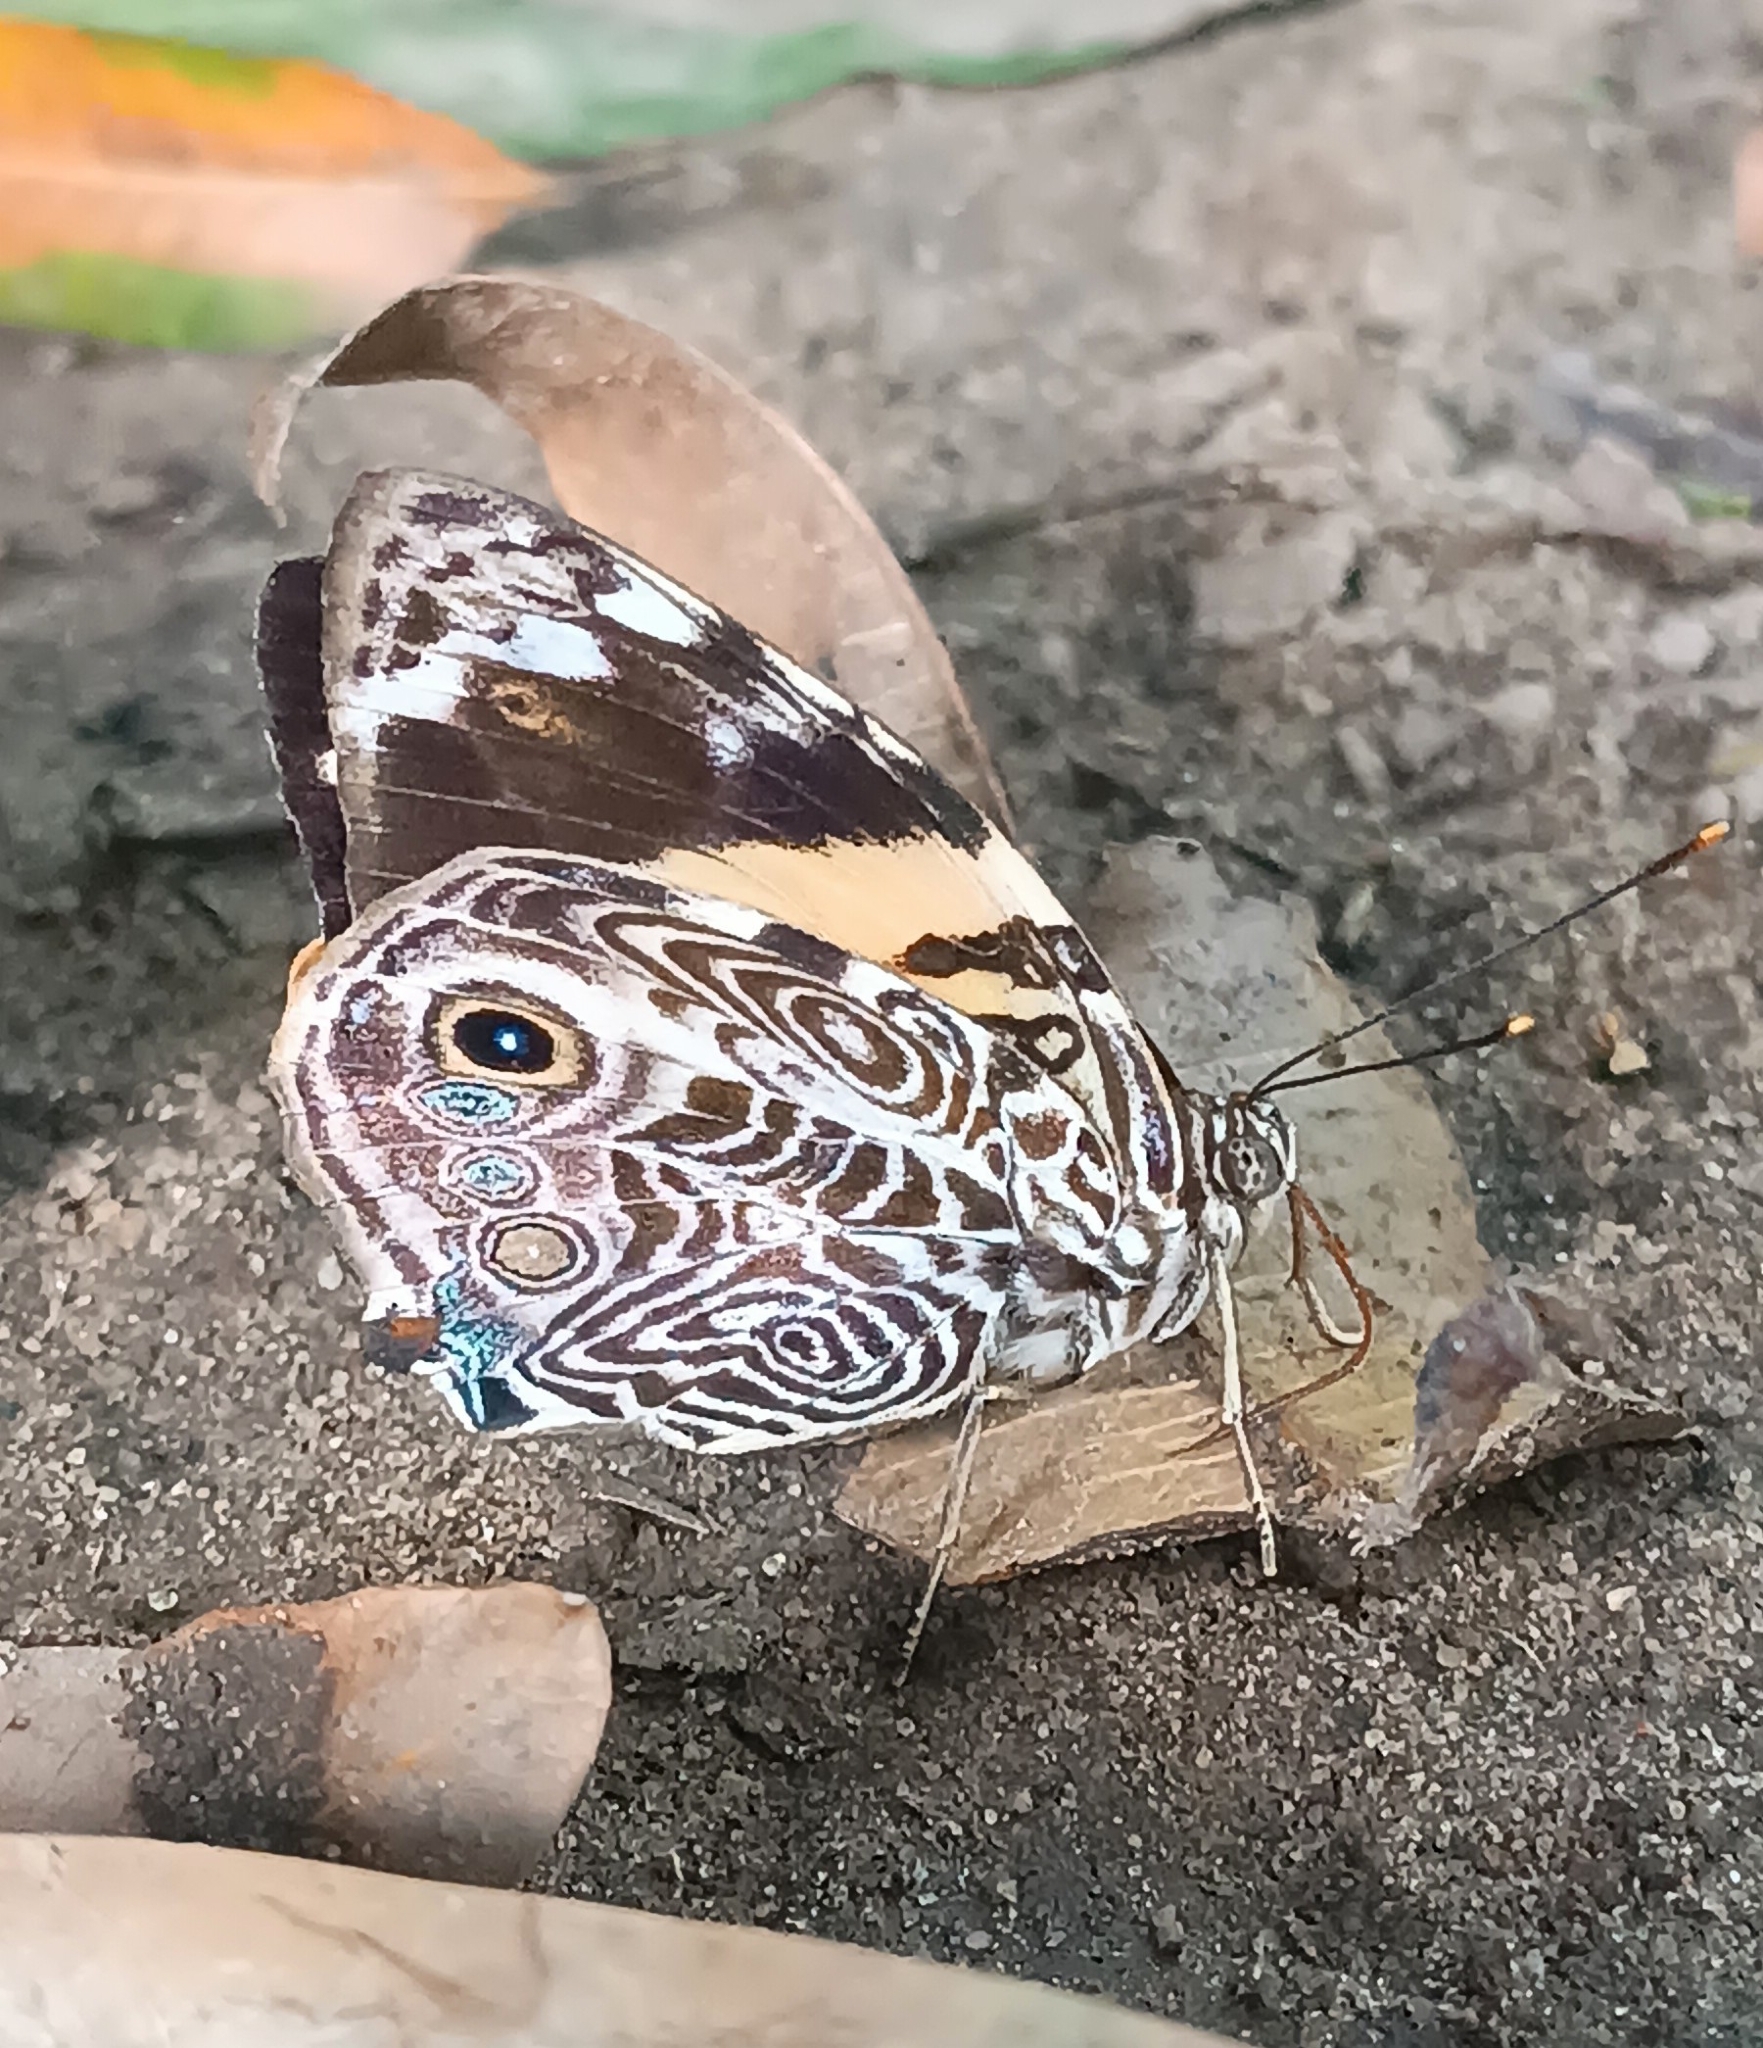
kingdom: Animalia
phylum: Arthropoda
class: Insecta
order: Lepidoptera
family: Nymphalidae
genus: Smyrna
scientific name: Smyrna blomfildia
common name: Blomfild's beauty
